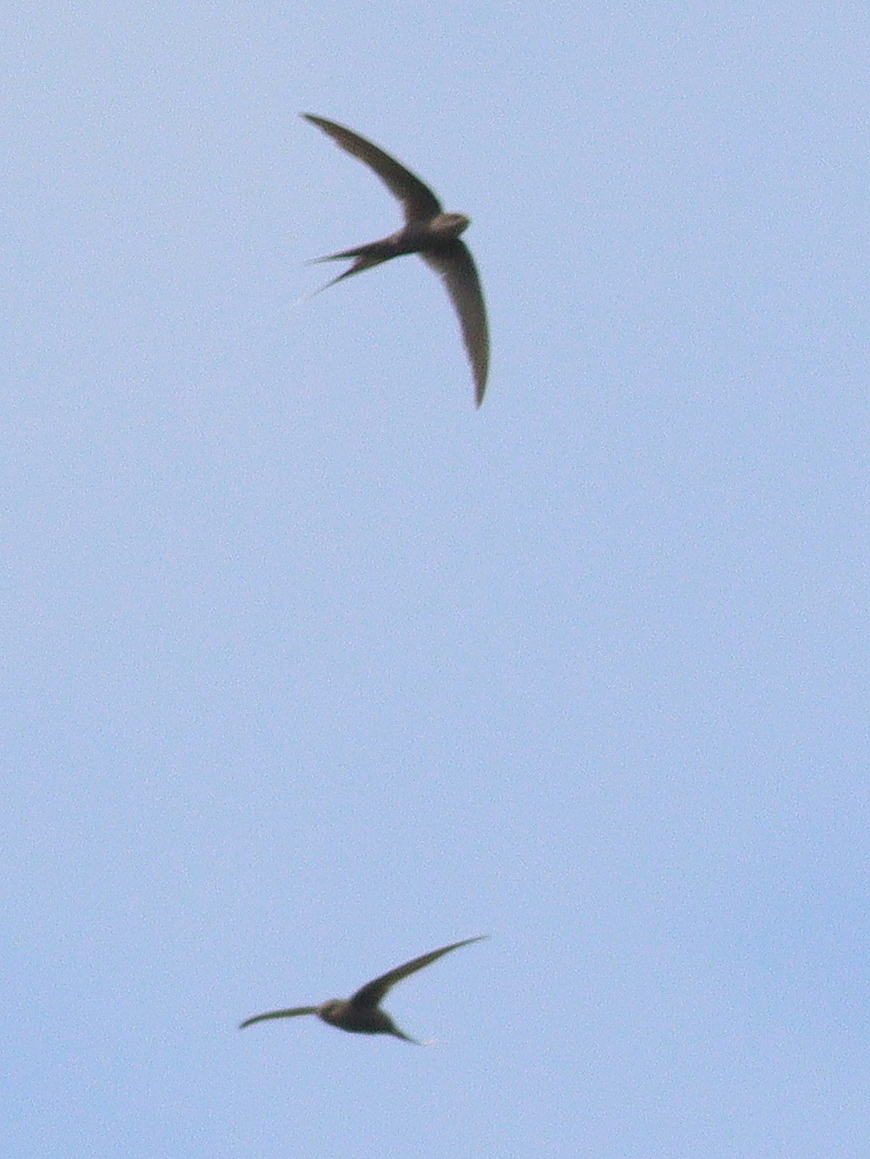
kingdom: Animalia
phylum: Chordata
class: Aves
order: Apodiformes
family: Apodidae
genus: Cypsiurus
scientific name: Cypsiurus parvus
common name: African palm swift
